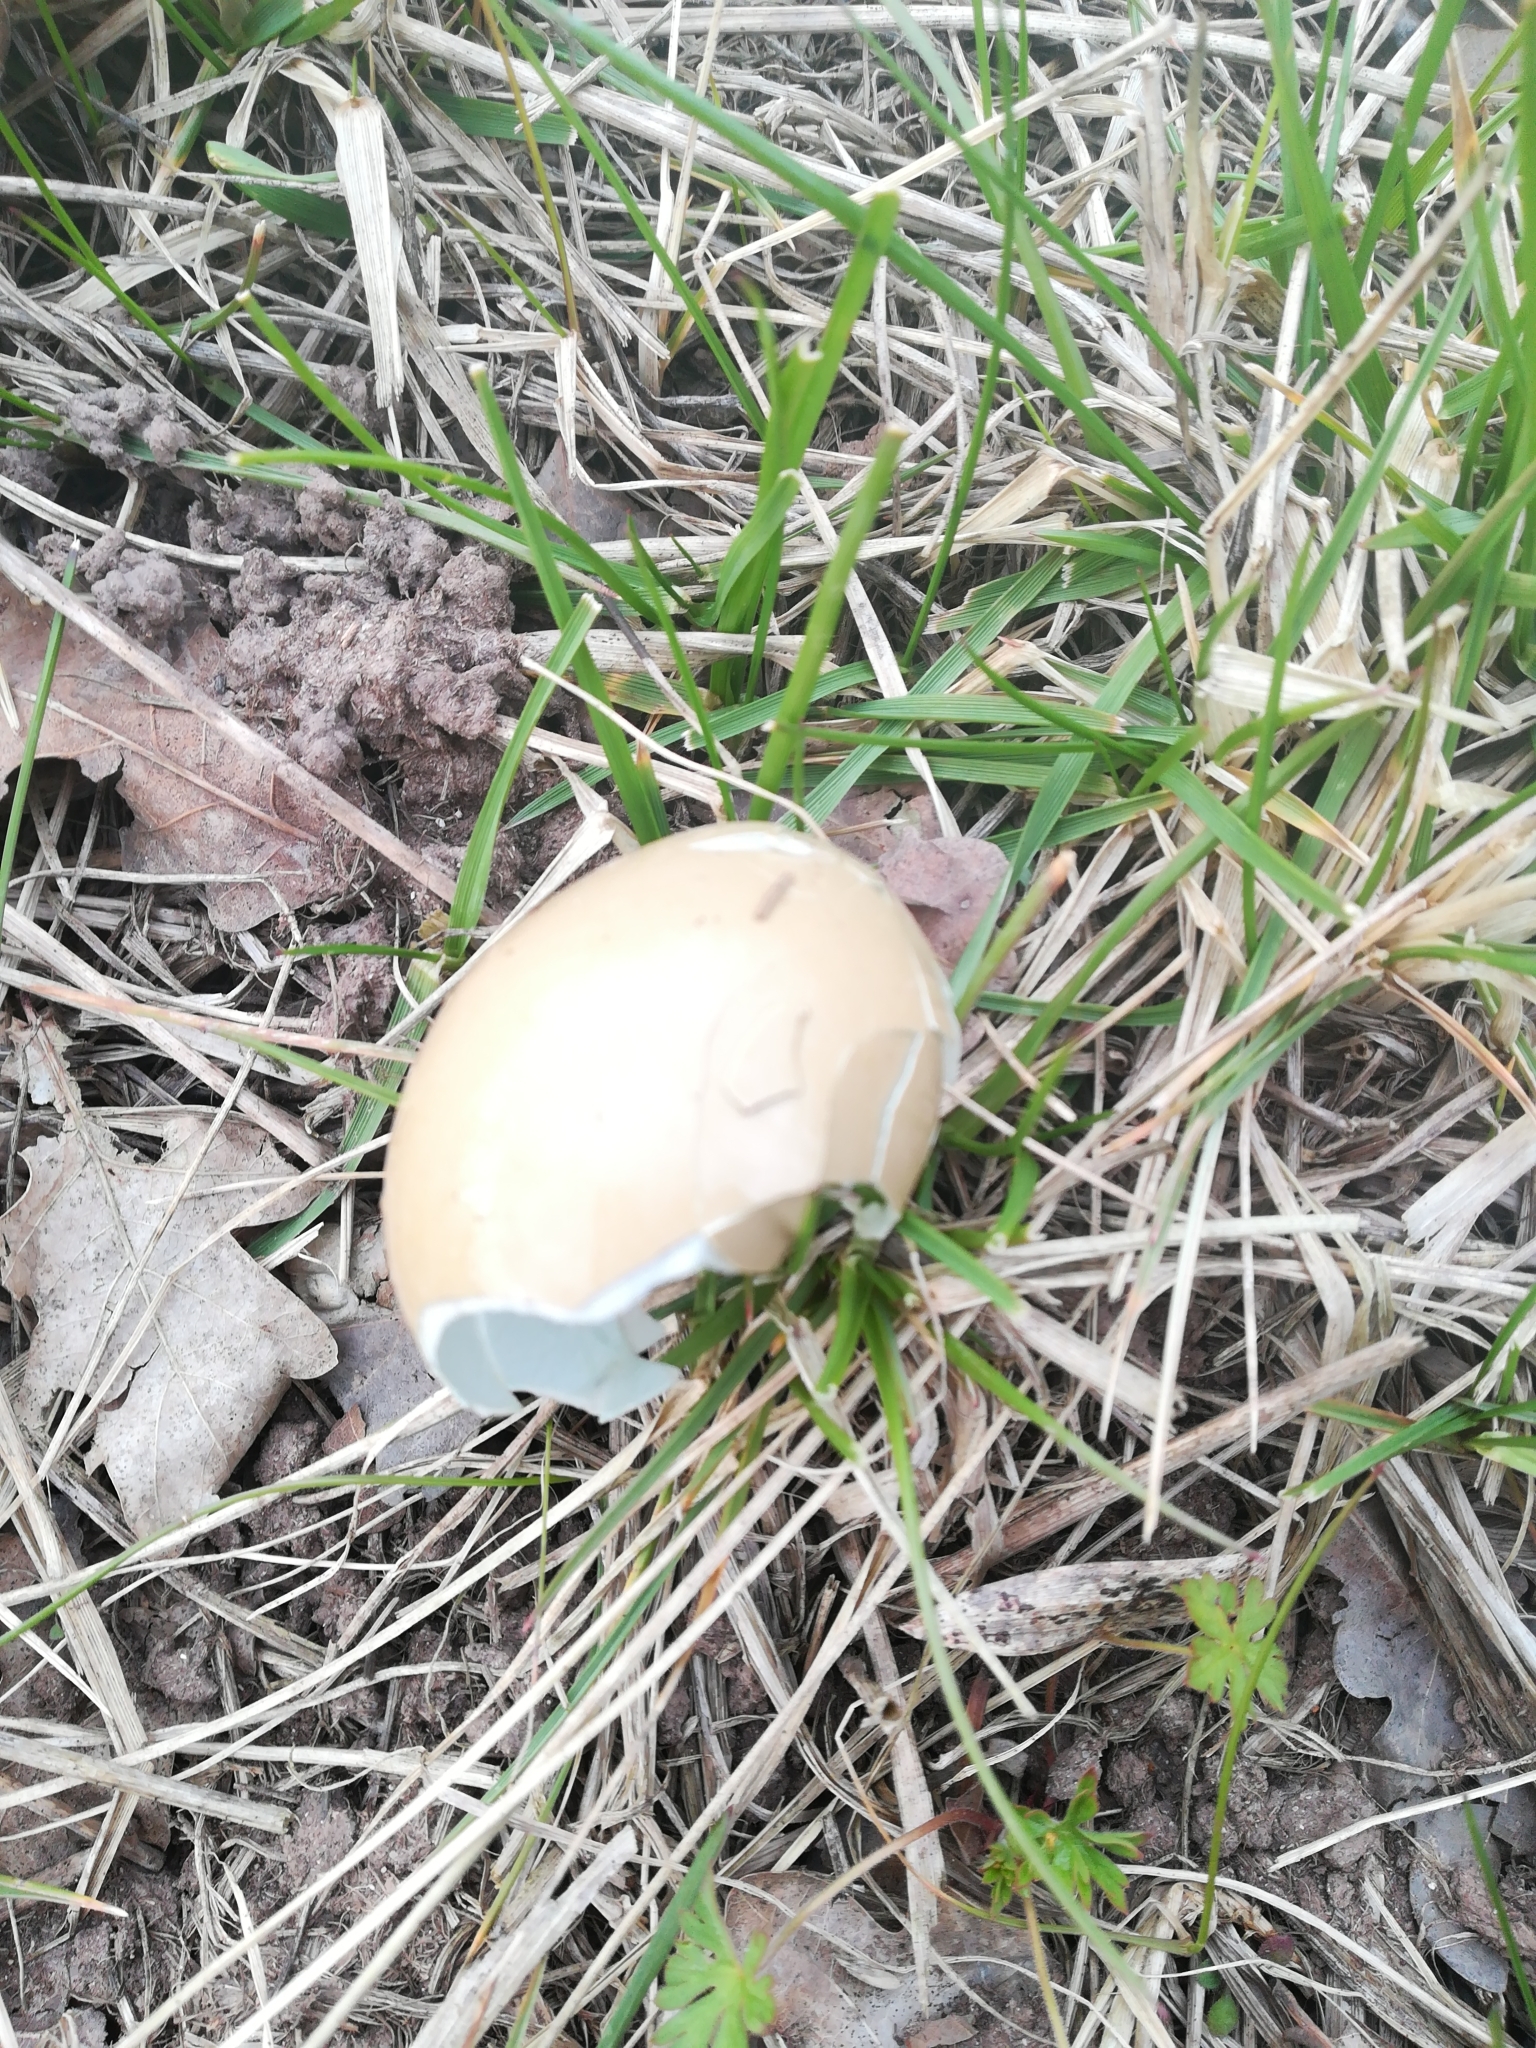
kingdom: Animalia
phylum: Chordata
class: Aves
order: Galliformes
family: Phasianidae
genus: Phasianus
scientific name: Phasianus colchicus
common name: Common pheasant
